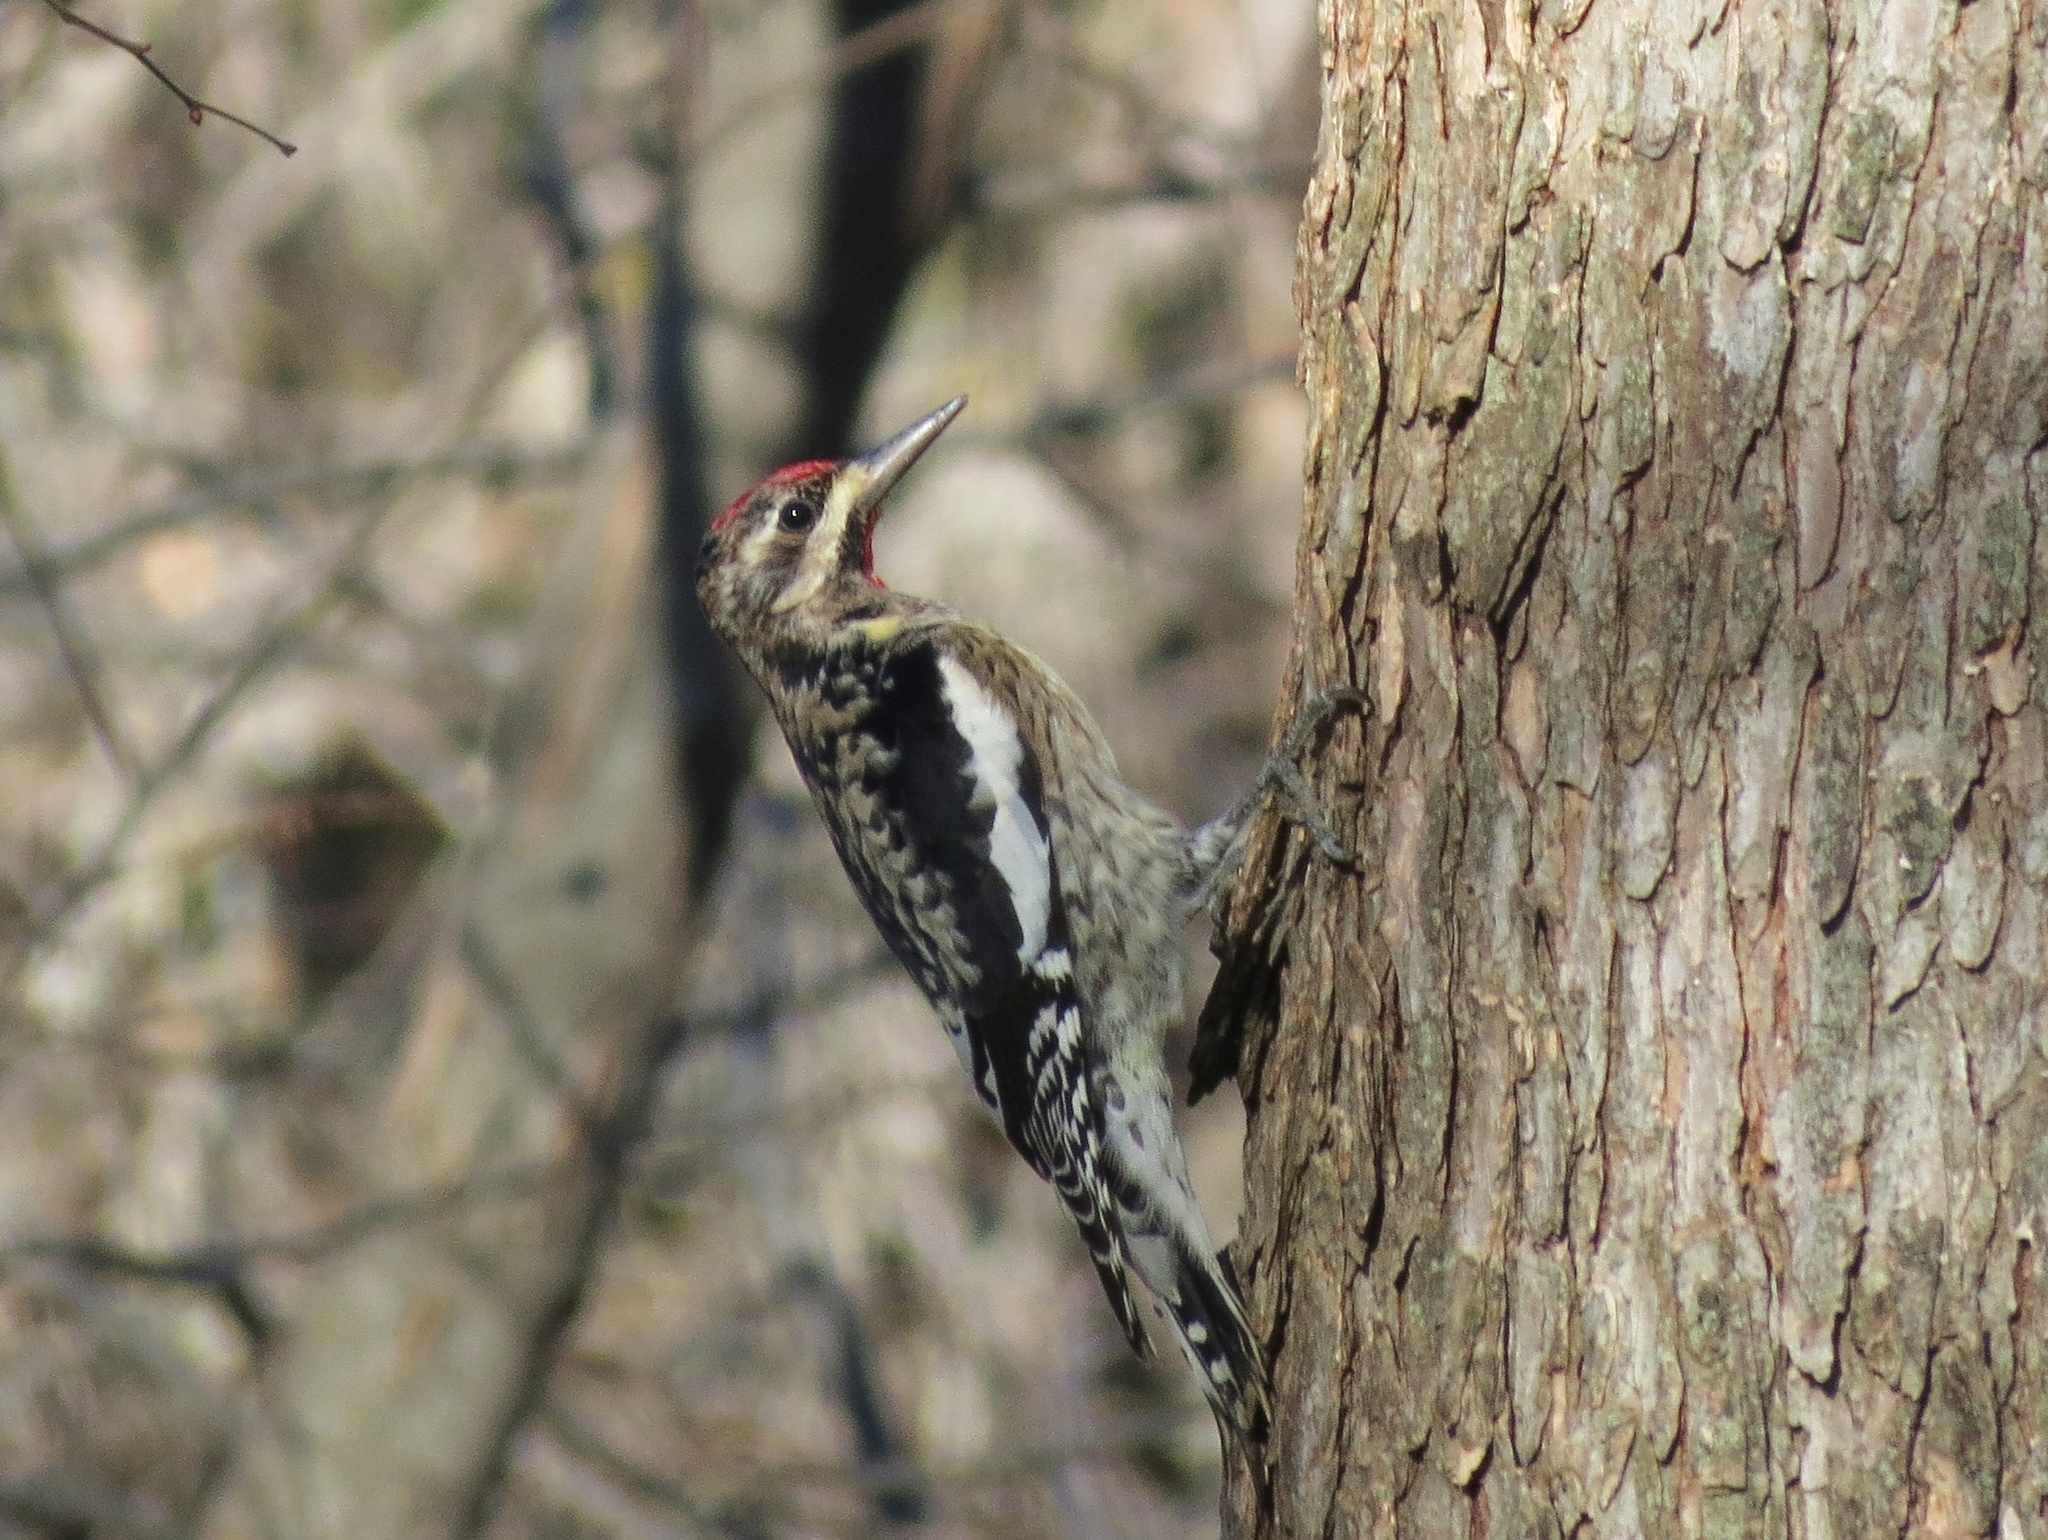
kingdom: Animalia
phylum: Chordata
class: Aves
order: Piciformes
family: Picidae
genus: Sphyrapicus
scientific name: Sphyrapicus varius
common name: Yellow-bellied sapsucker
